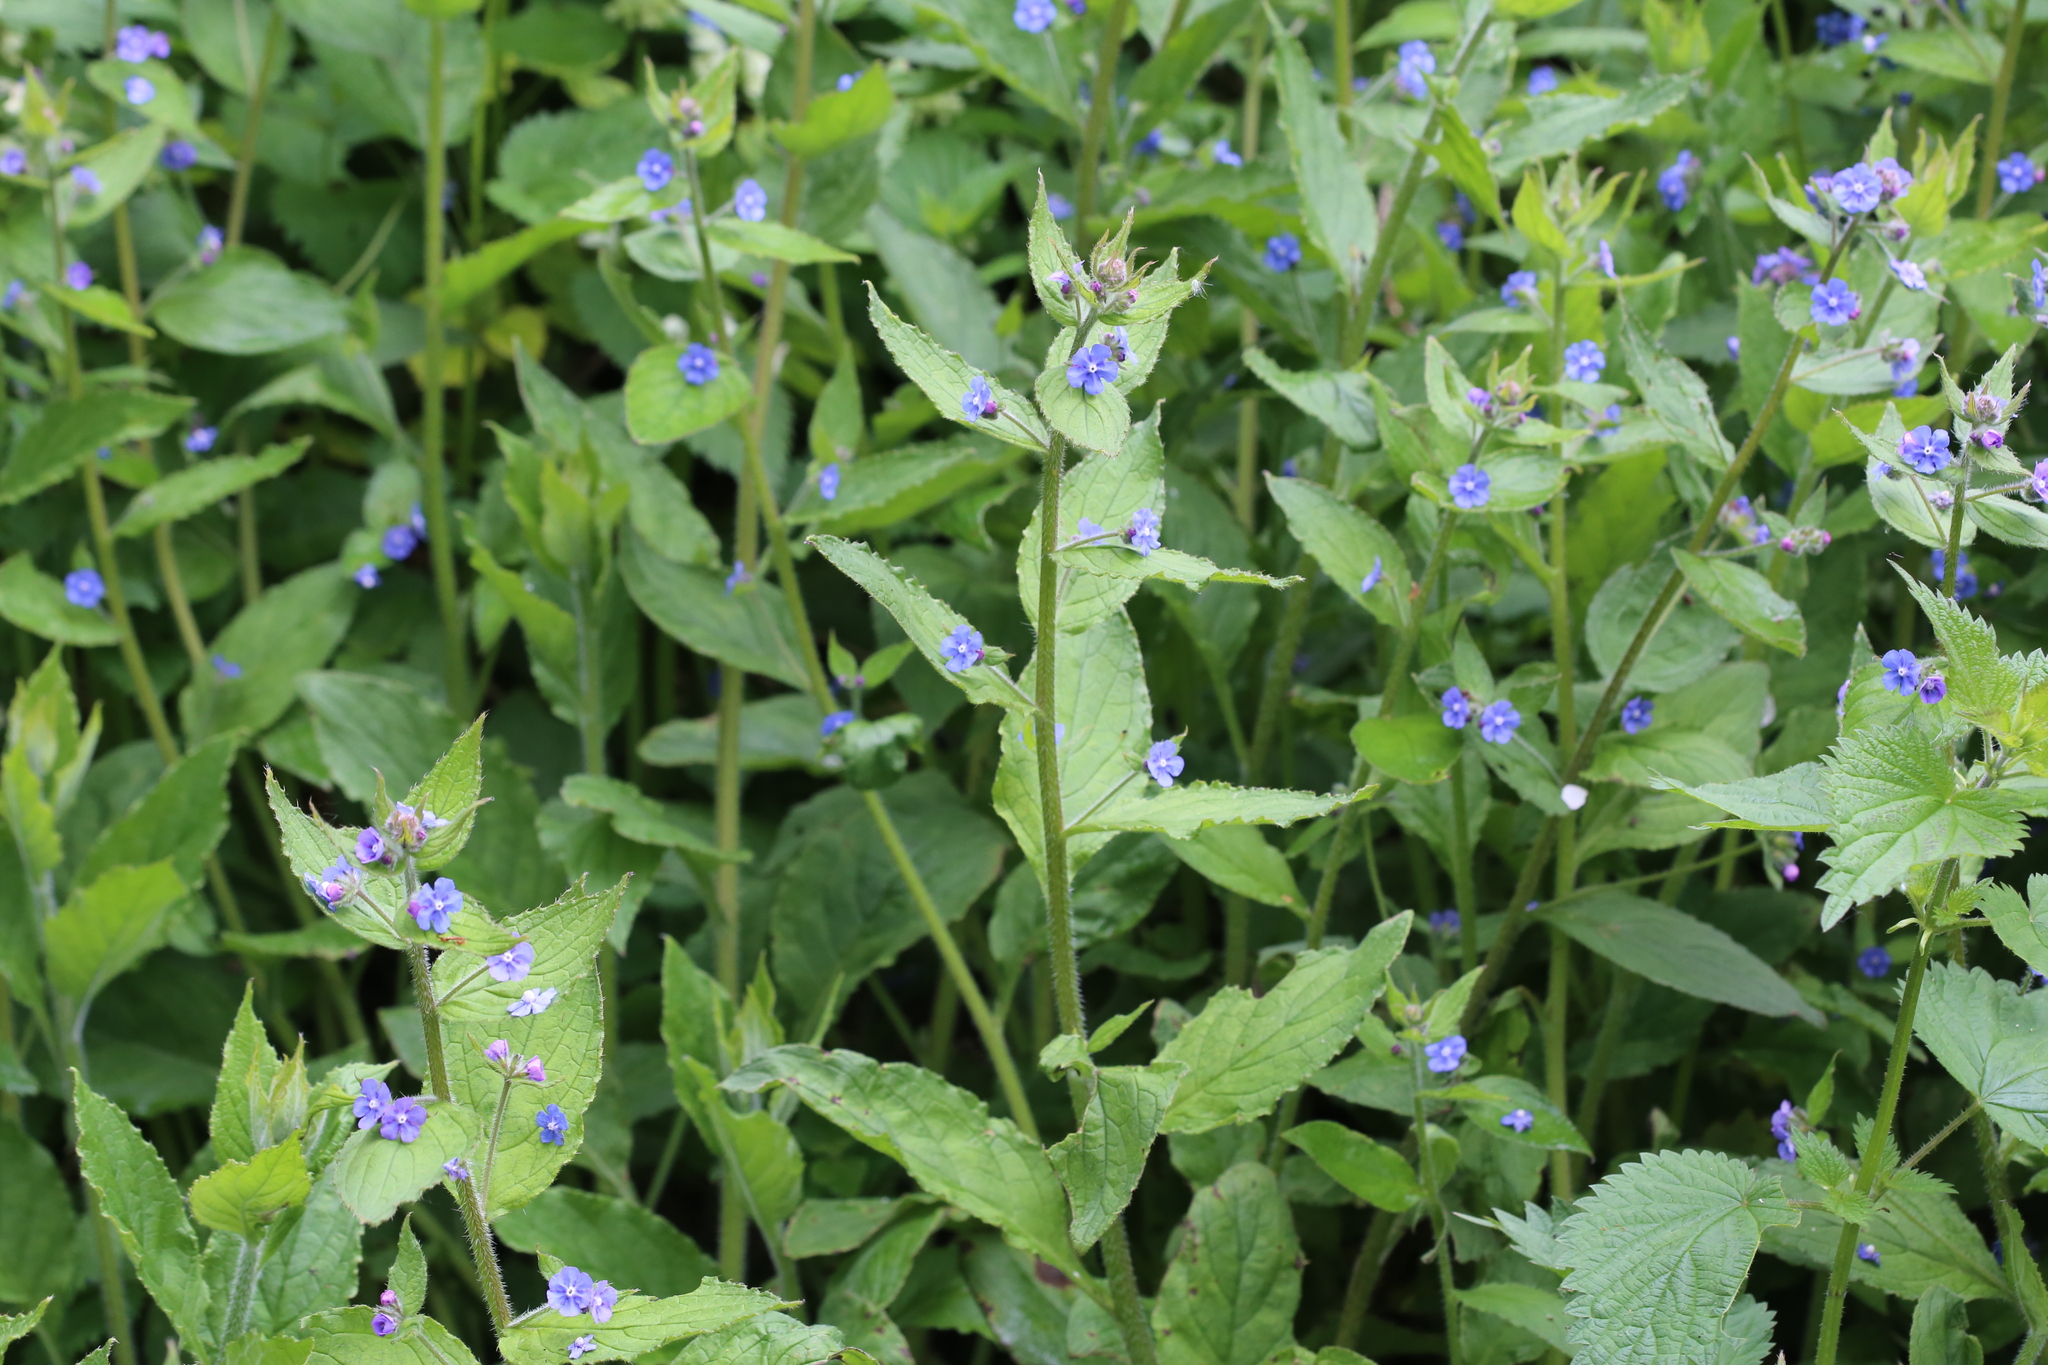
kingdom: Plantae
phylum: Tracheophyta
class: Magnoliopsida
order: Boraginales
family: Boraginaceae
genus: Pentaglottis
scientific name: Pentaglottis sempervirens
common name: Green alkanet
